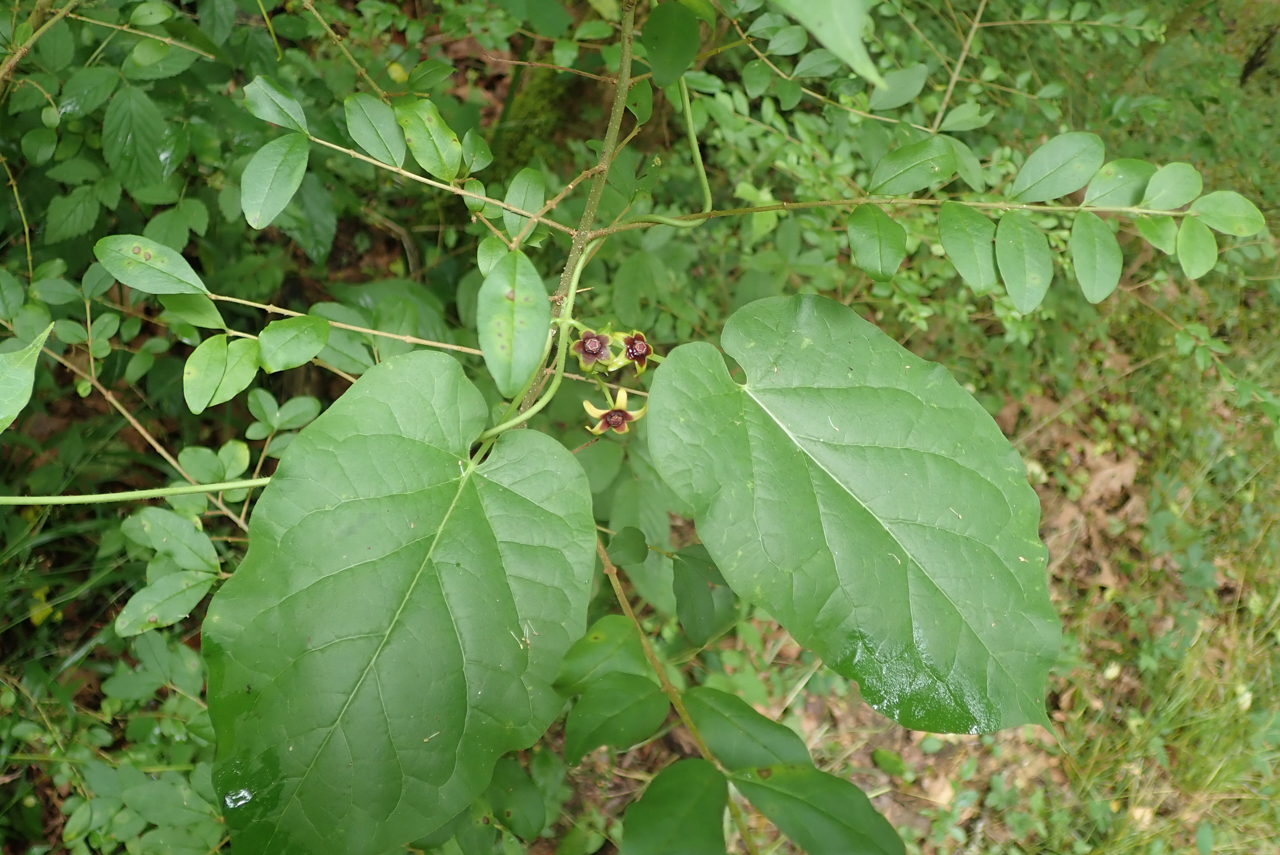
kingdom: Plantae
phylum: Tracheophyta
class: Magnoliopsida
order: Gentianales
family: Apocynaceae
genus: Gonolobus
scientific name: Gonolobus suberosus
